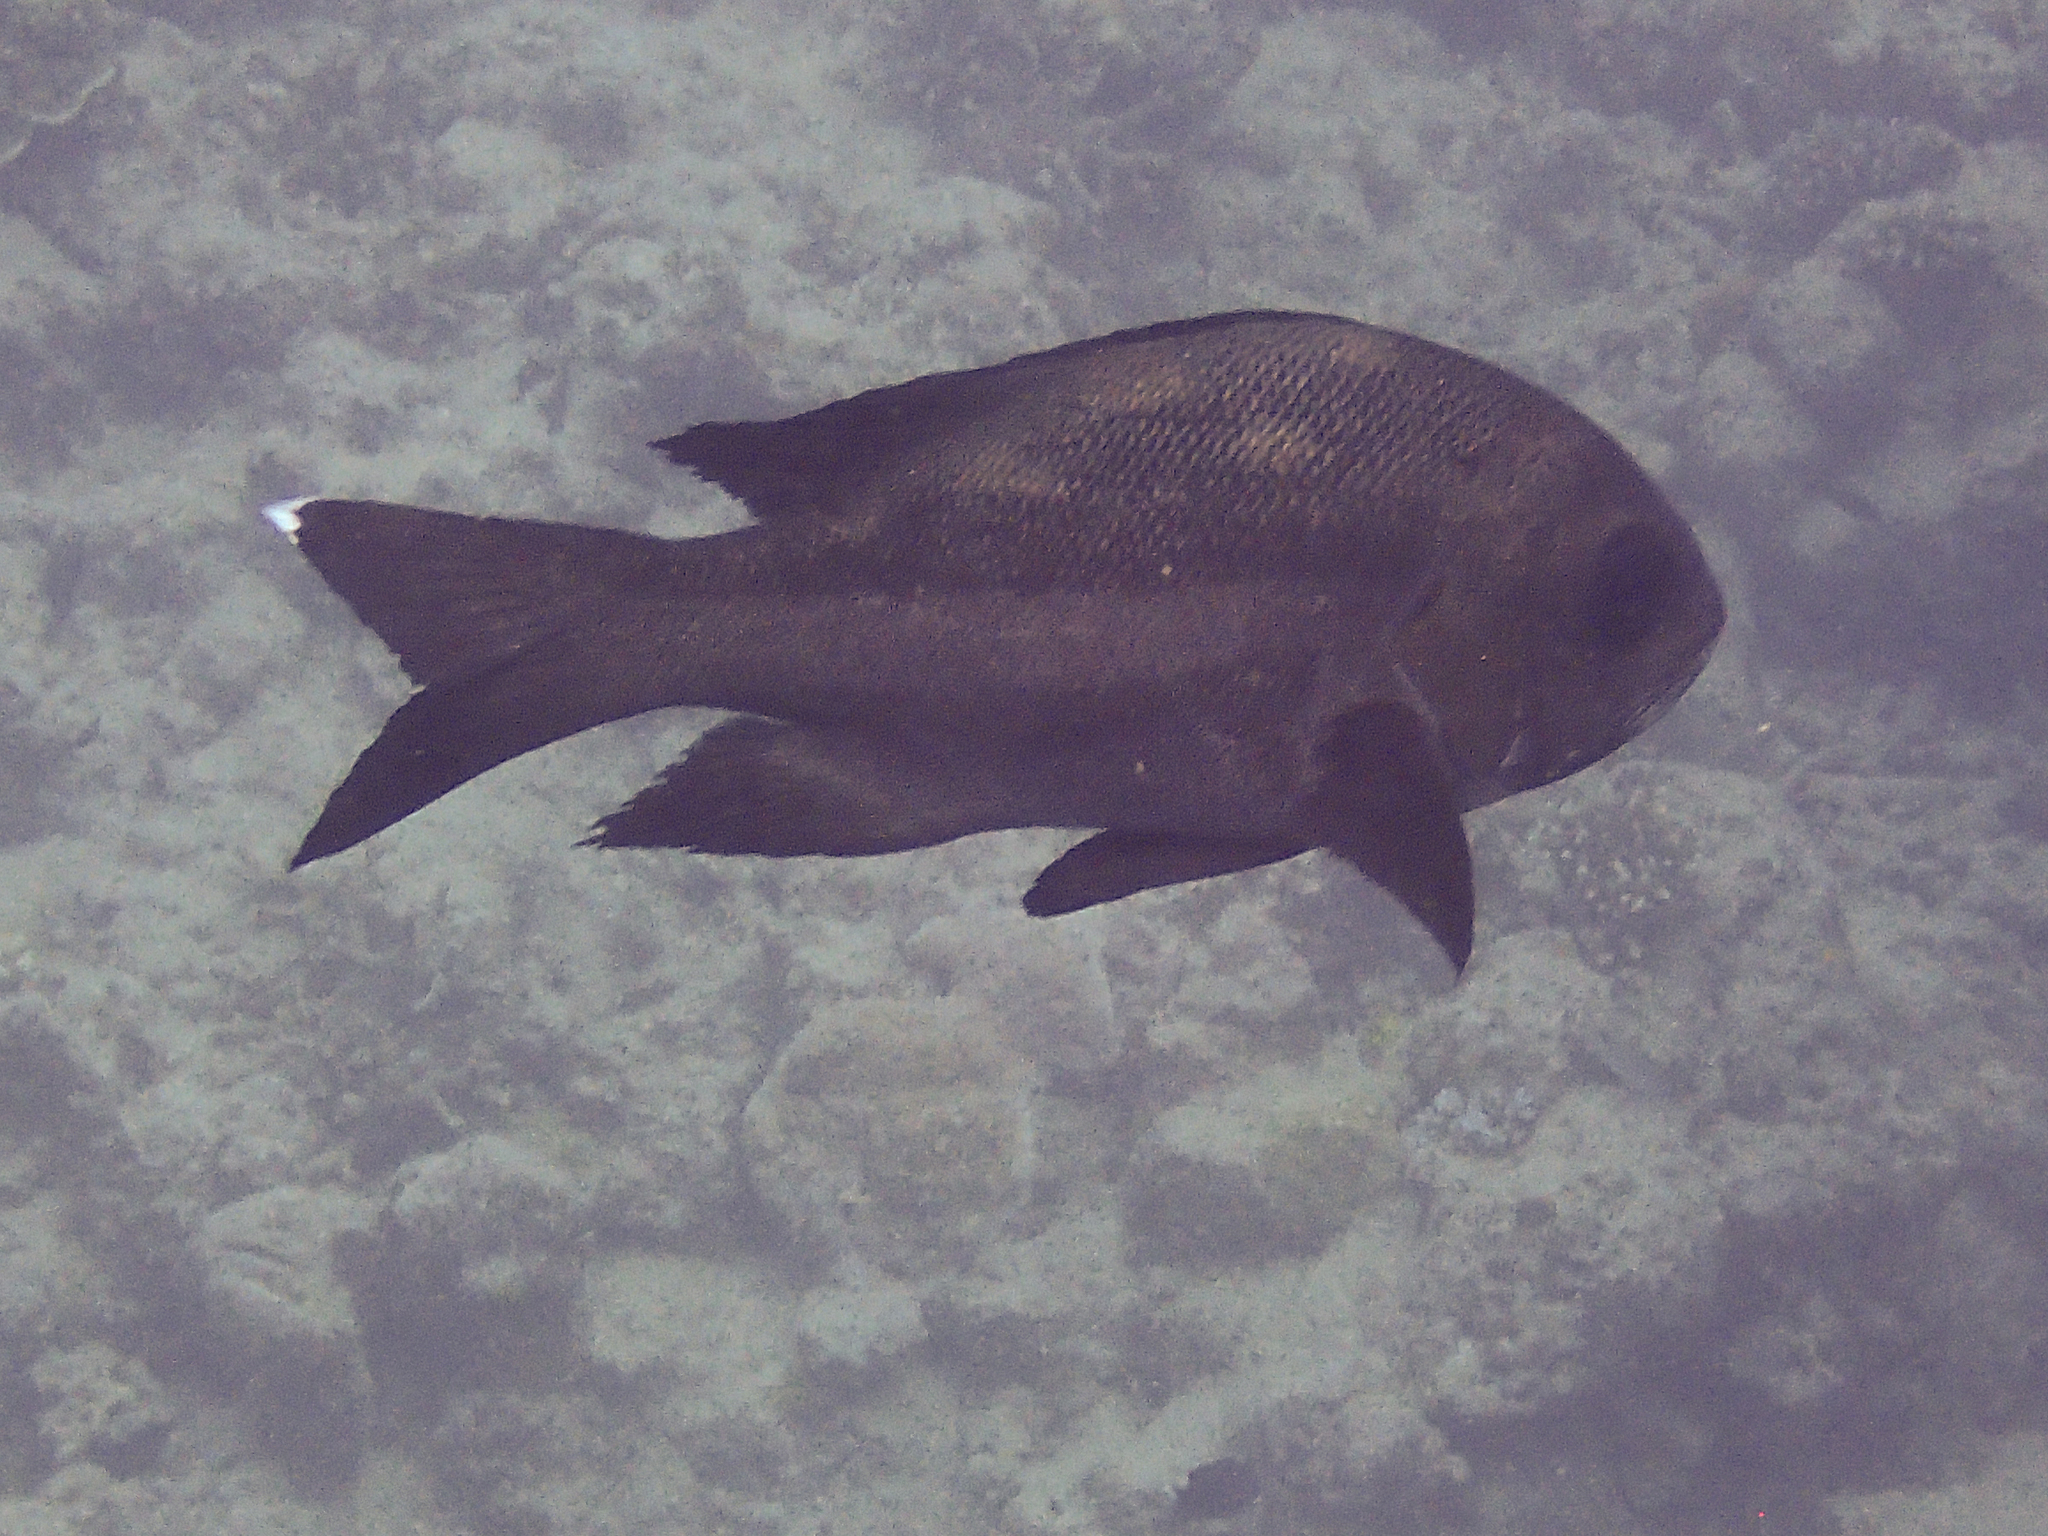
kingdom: Animalia
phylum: Chordata
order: Perciformes
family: Lutjanidae
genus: Macolor
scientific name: Macolor niger
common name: Black snapper
